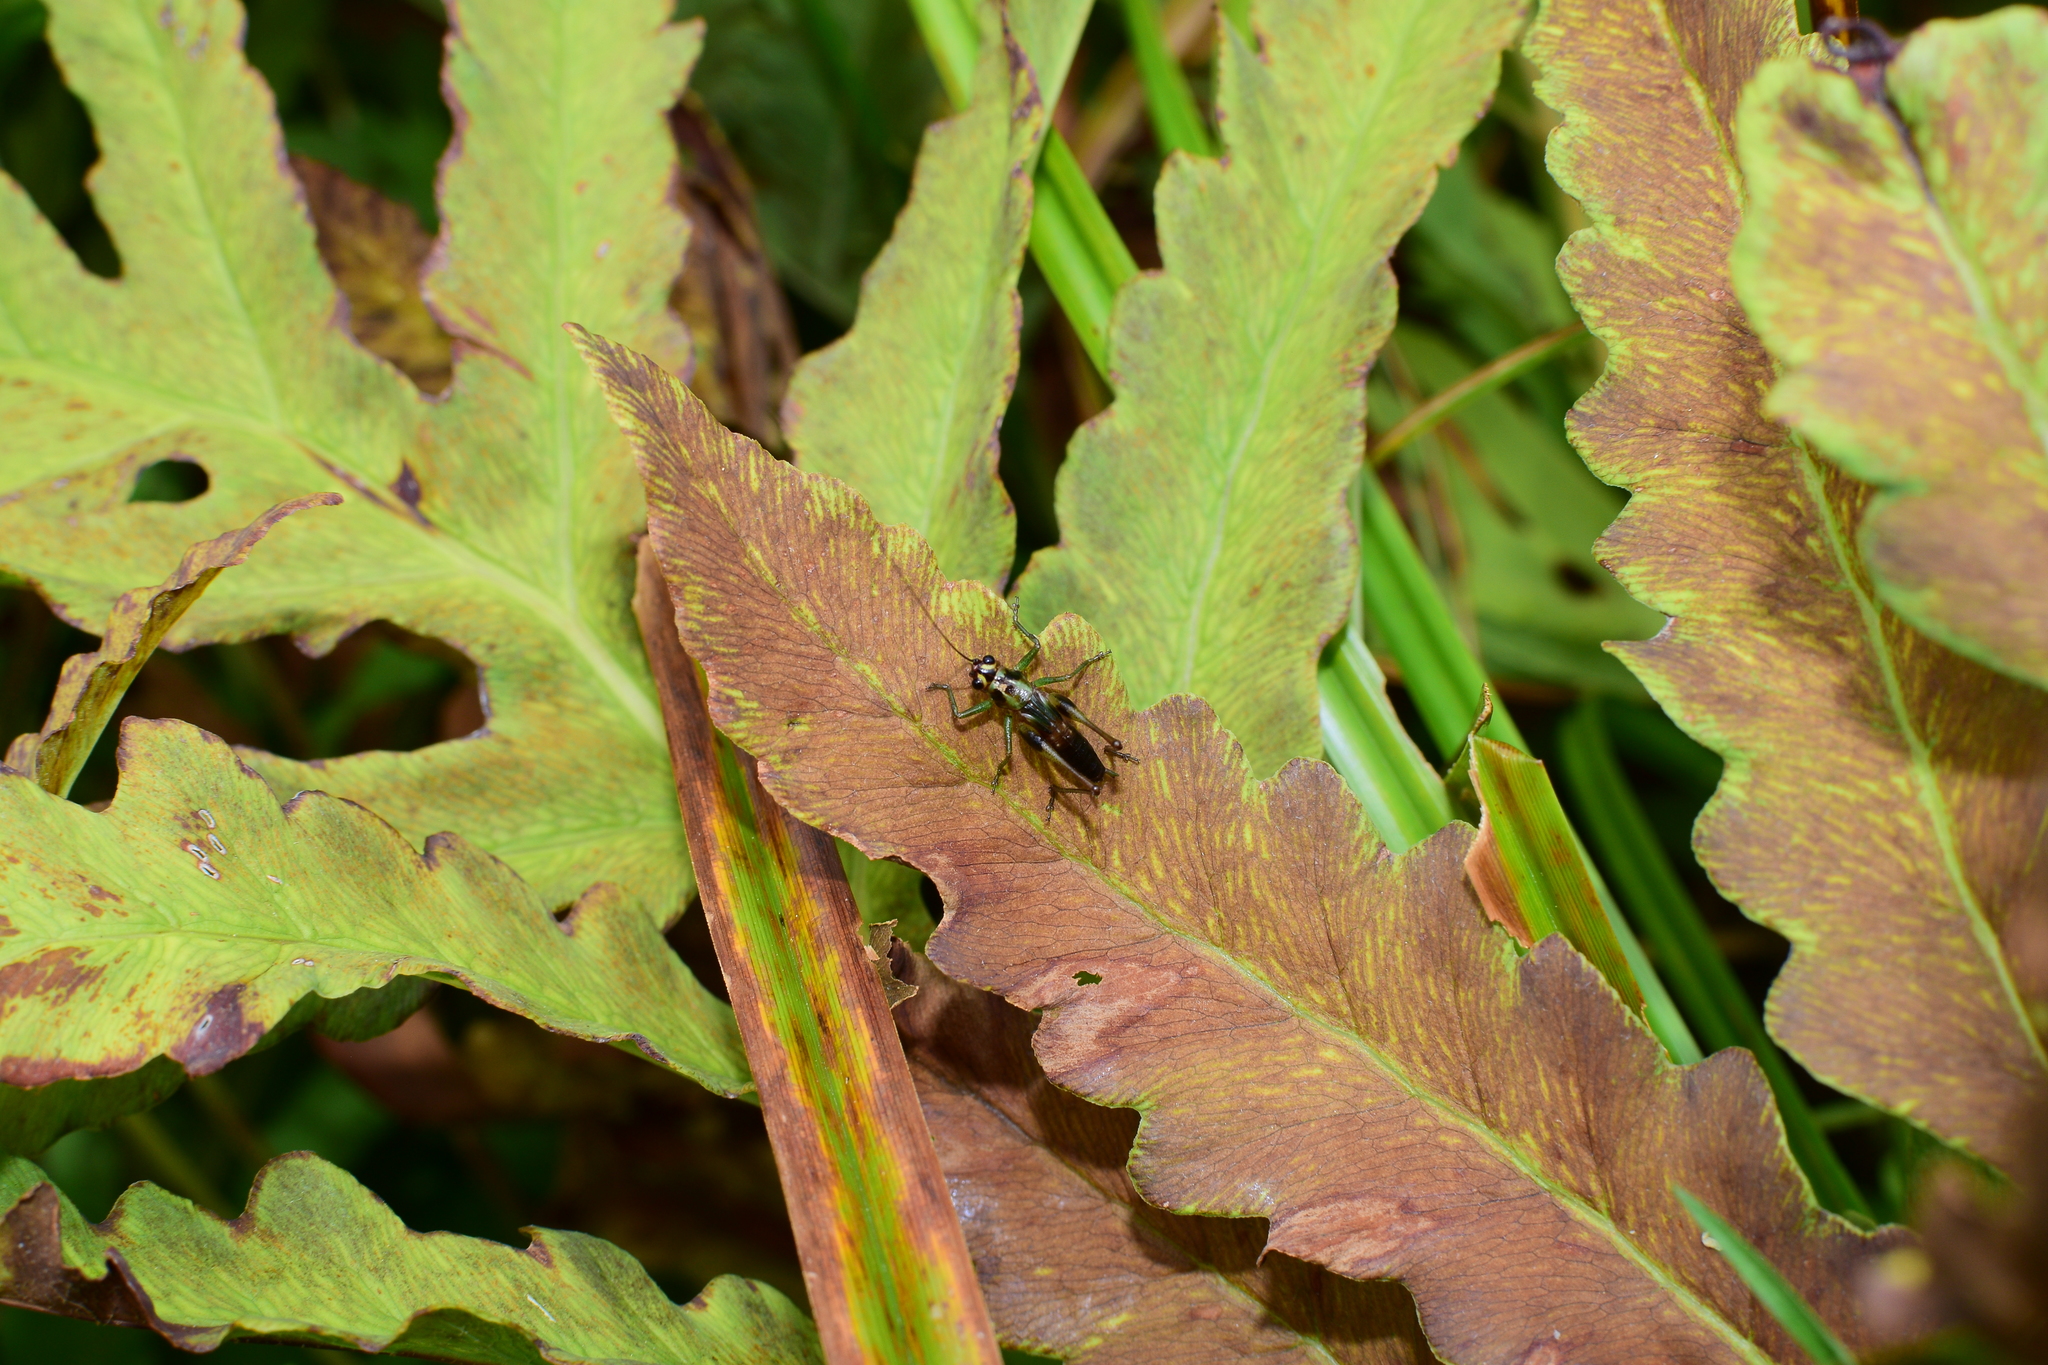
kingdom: Animalia
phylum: Arthropoda
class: Insecta
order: Orthoptera
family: Tettigoniidae
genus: Conocephalus
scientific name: Conocephalus nigropleurum
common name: Black-sided meadow katydid
